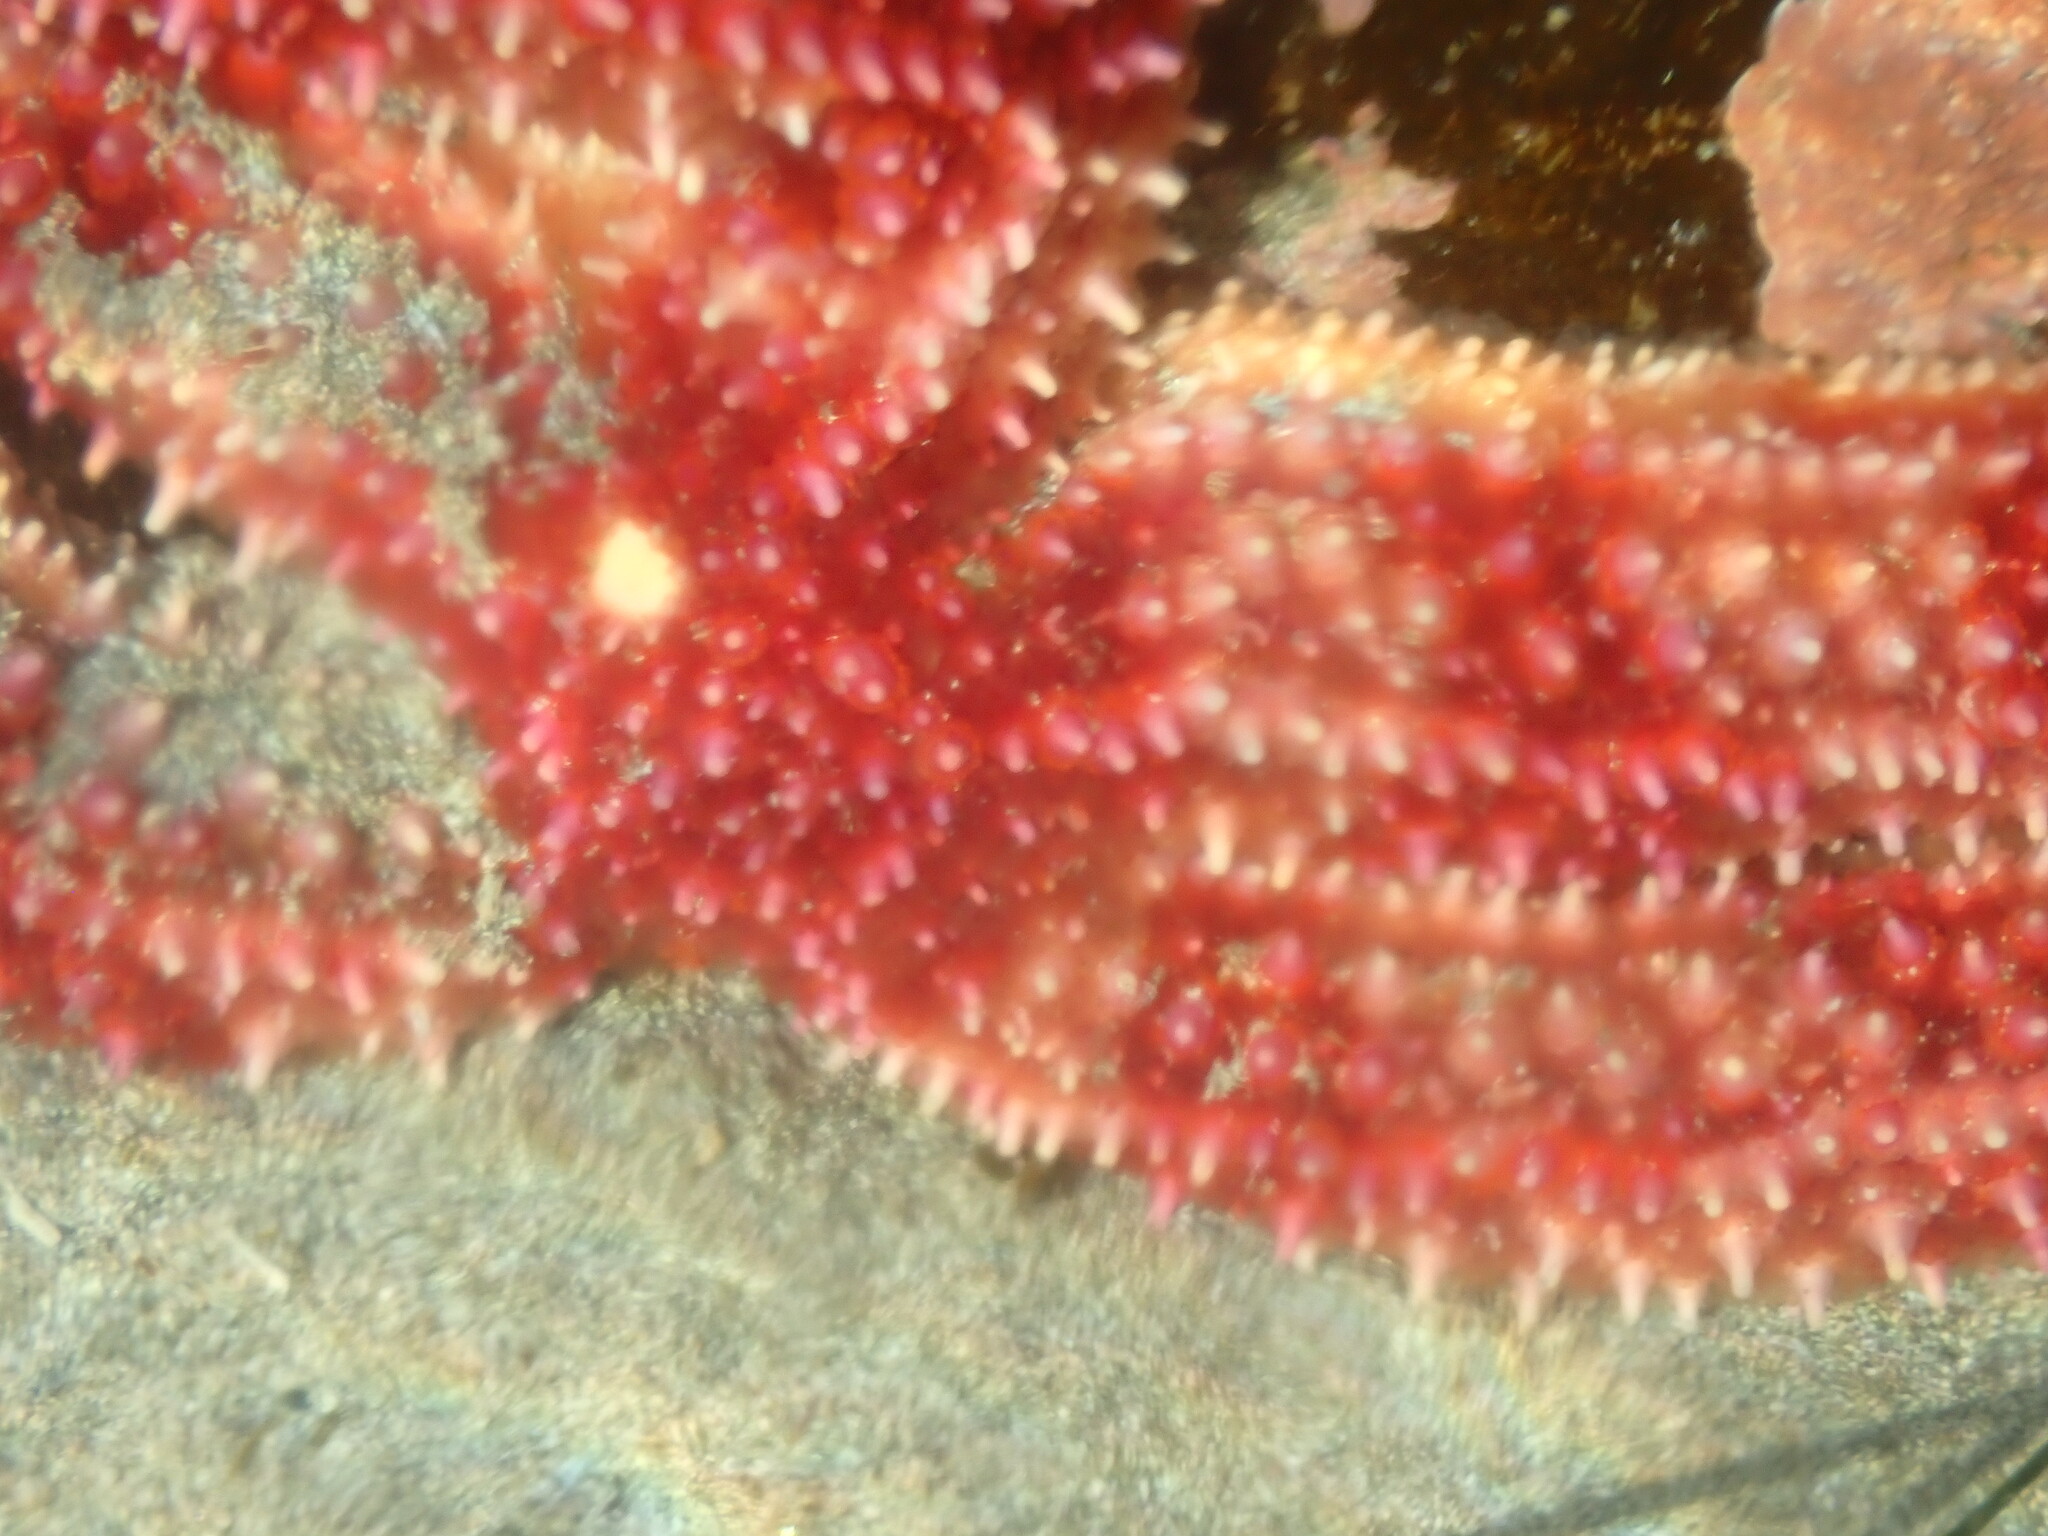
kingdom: Animalia
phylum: Echinodermata
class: Asteroidea
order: Forcipulatida
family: Asteriidae
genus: Orthasterias
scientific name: Orthasterias koehleri
